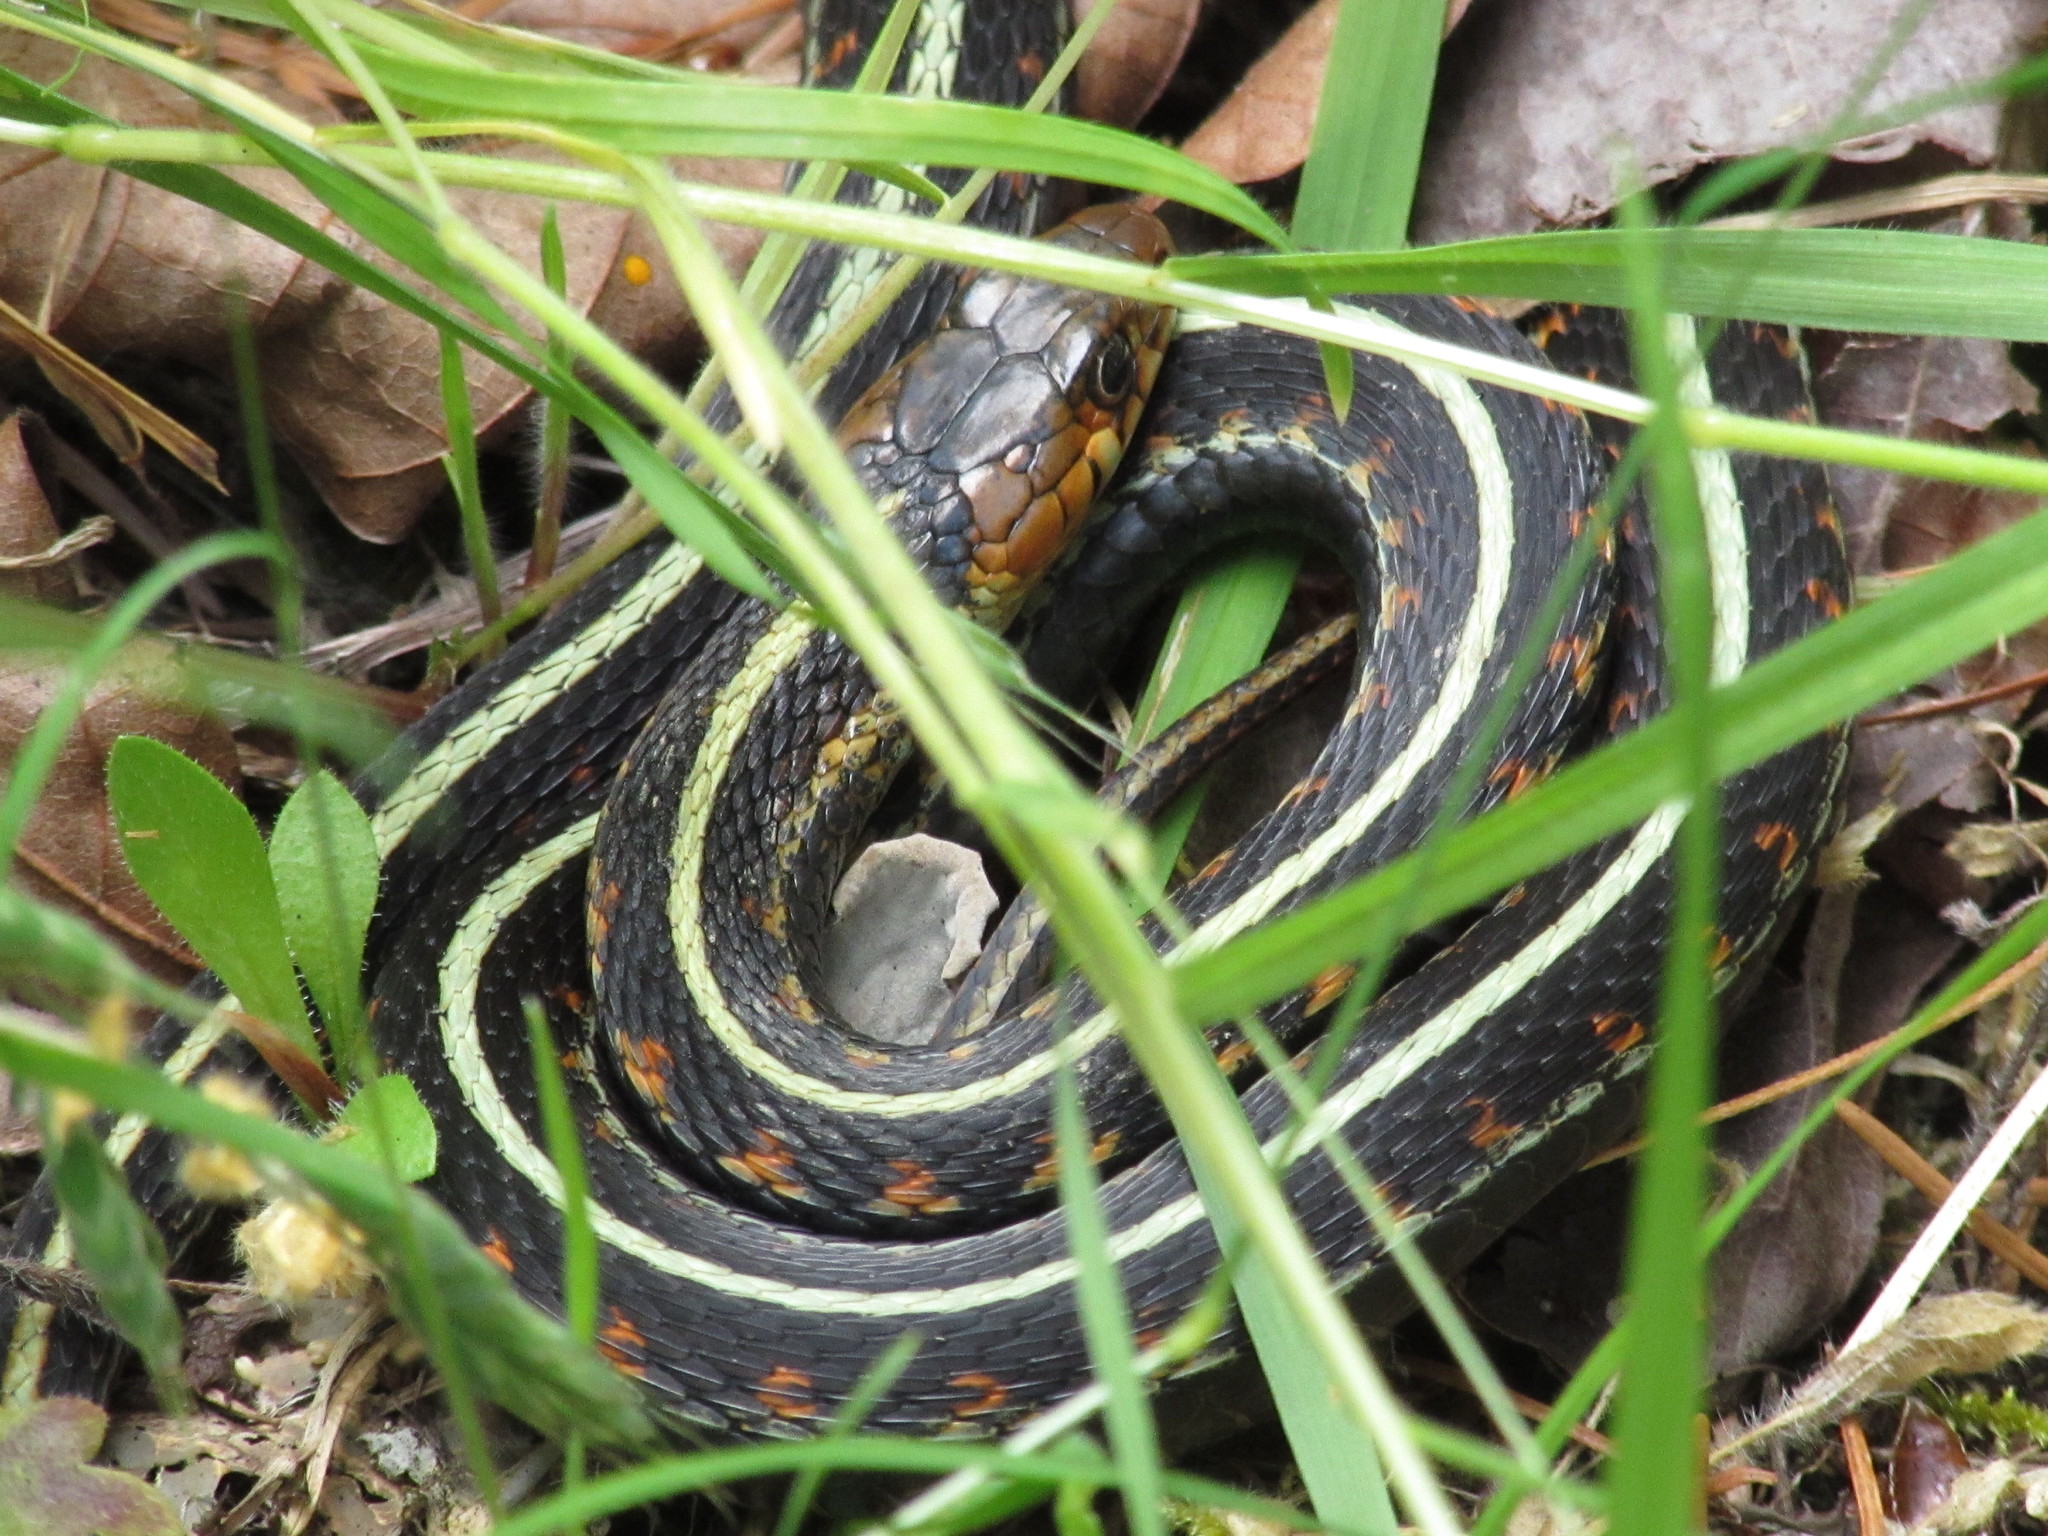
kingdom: Animalia
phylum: Chordata
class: Squamata
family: Colubridae
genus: Thamnophis
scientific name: Thamnophis sirtalis
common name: Common garter snake
